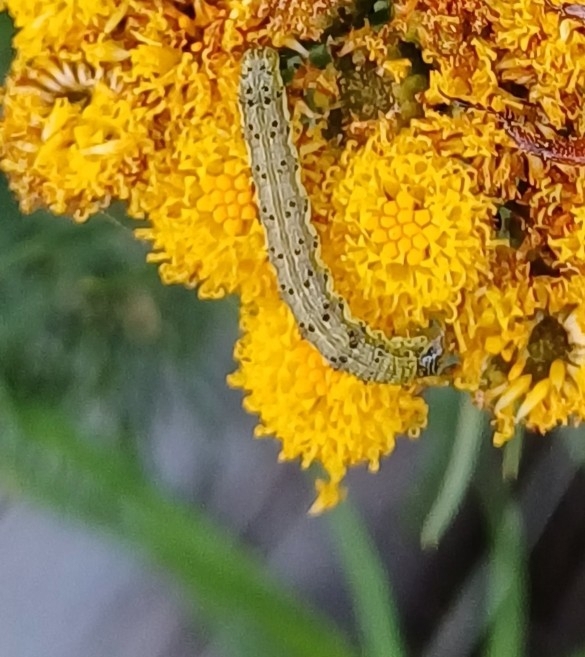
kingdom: Animalia
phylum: Arthropoda
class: Insecta
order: Lepidoptera
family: Noctuidae
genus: Helicoverpa
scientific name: Helicoverpa armigera
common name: Cotton bollworm
